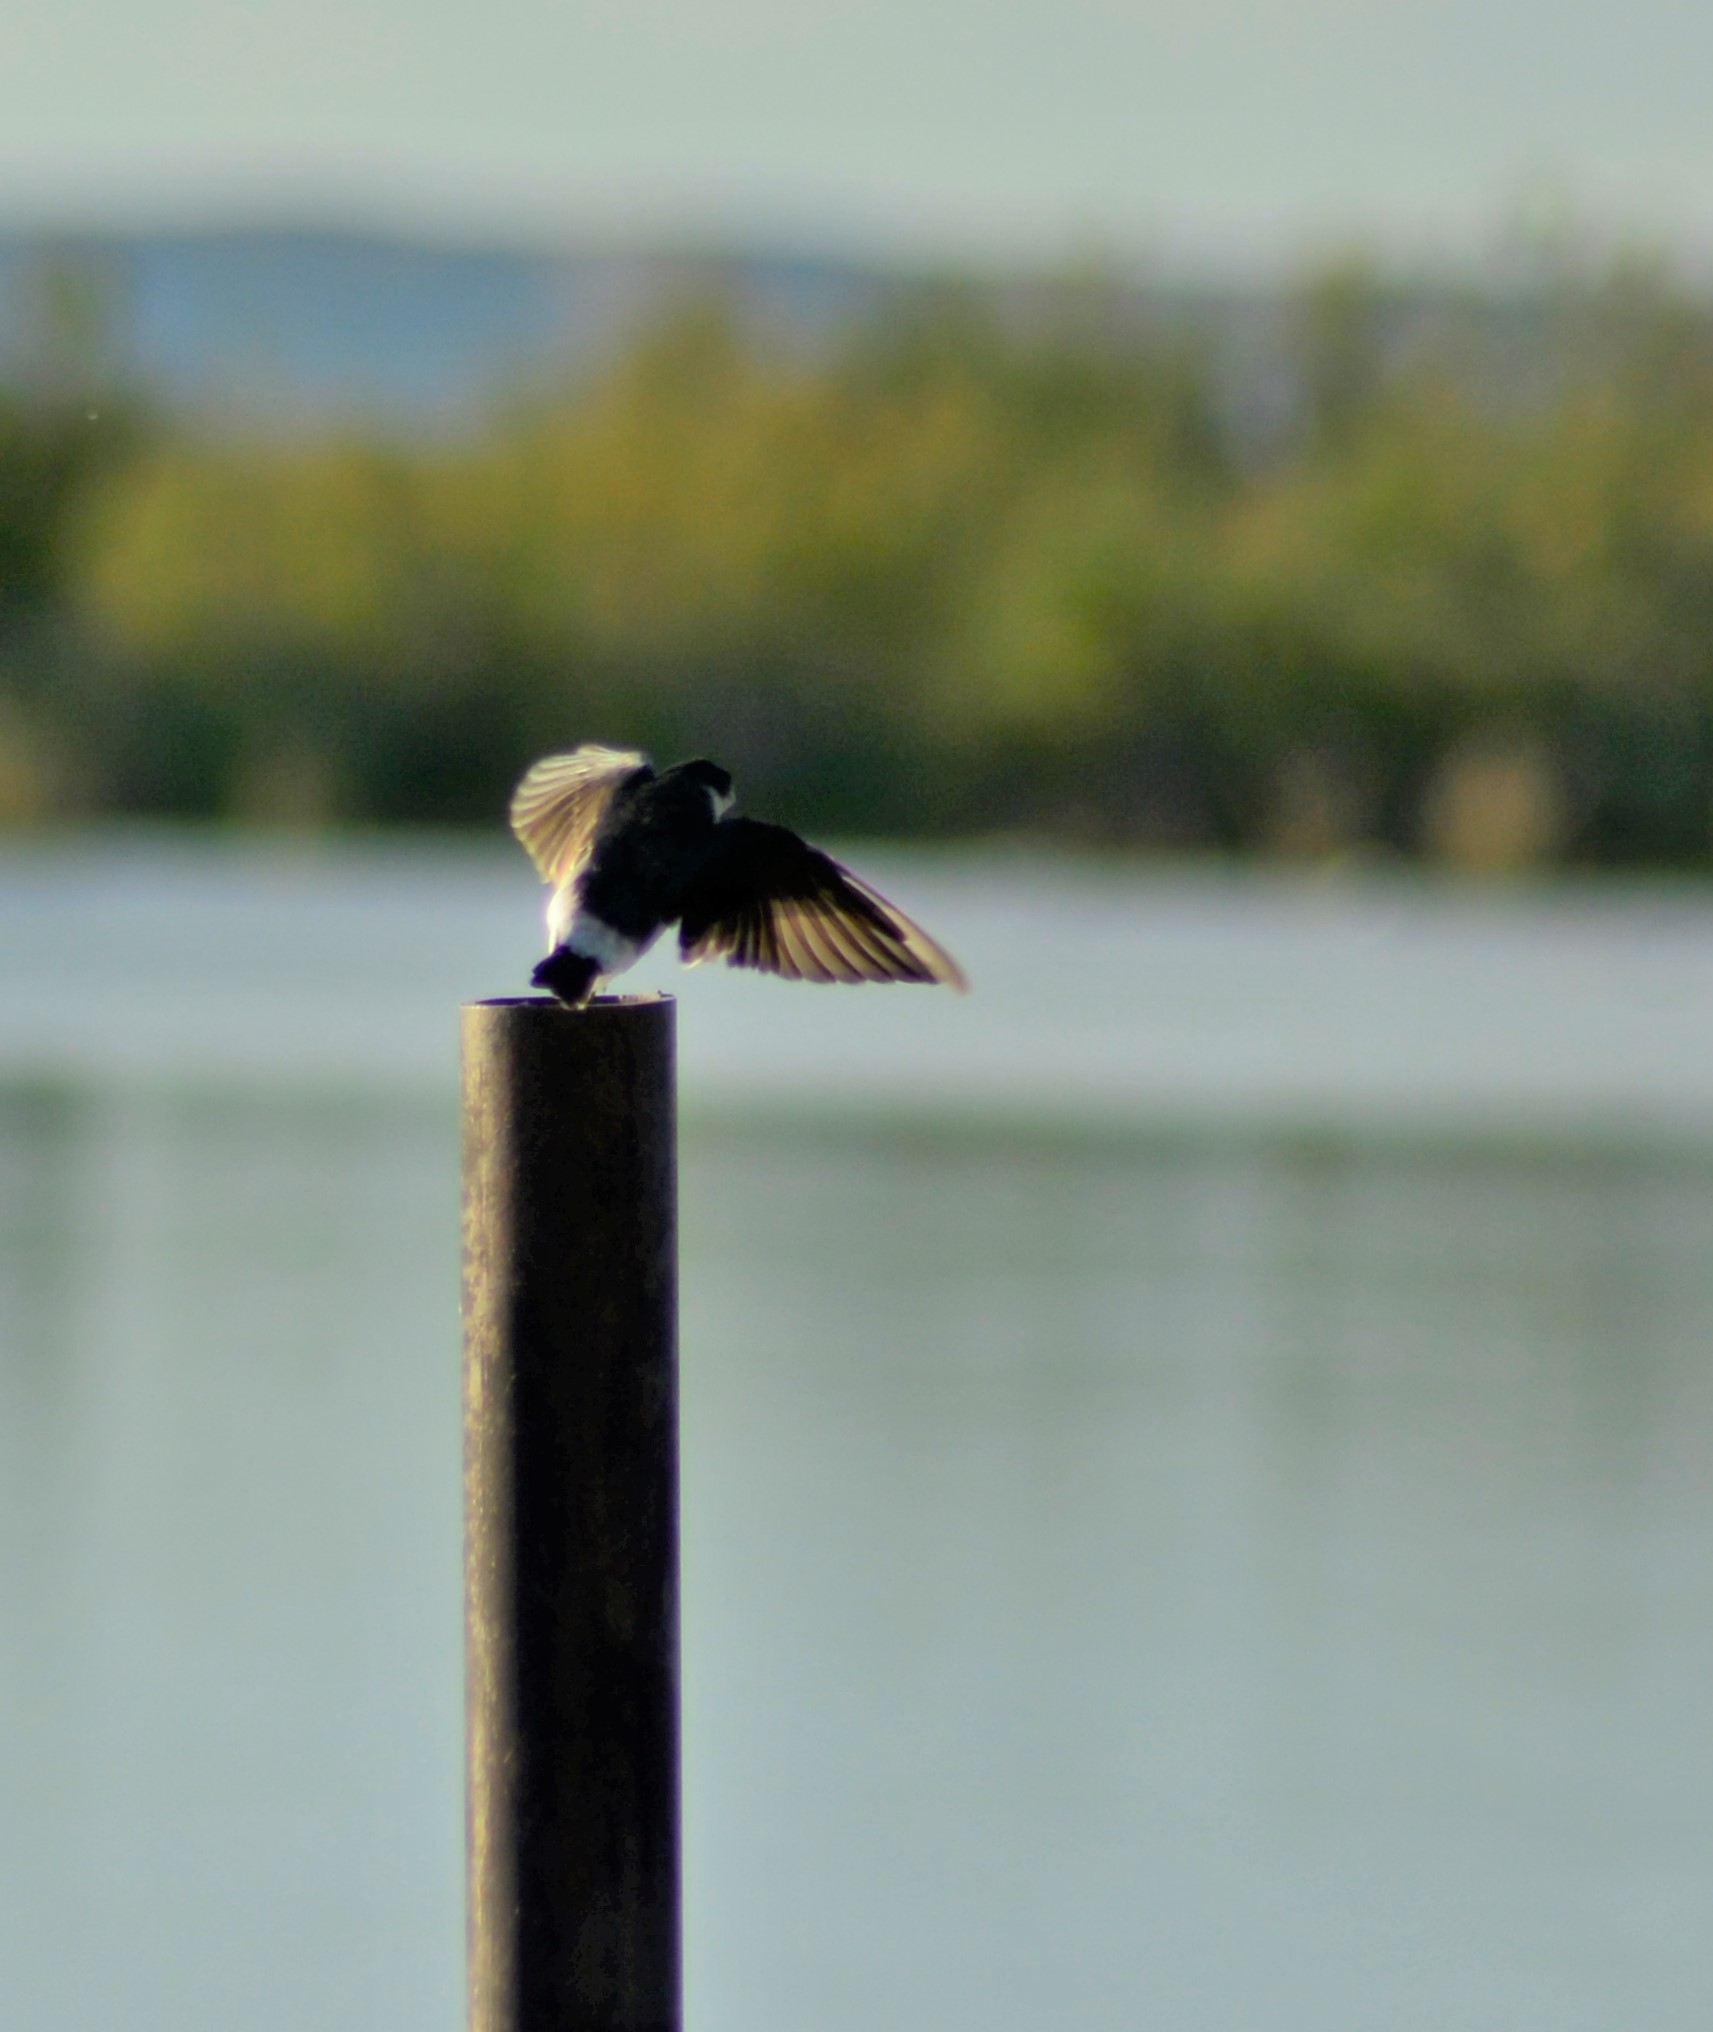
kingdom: Animalia
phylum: Chordata
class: Aves
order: Passeriformes
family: Hirundinidae
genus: Tachycineta
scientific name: Tachycineta leucopyga
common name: Chilean swallow
